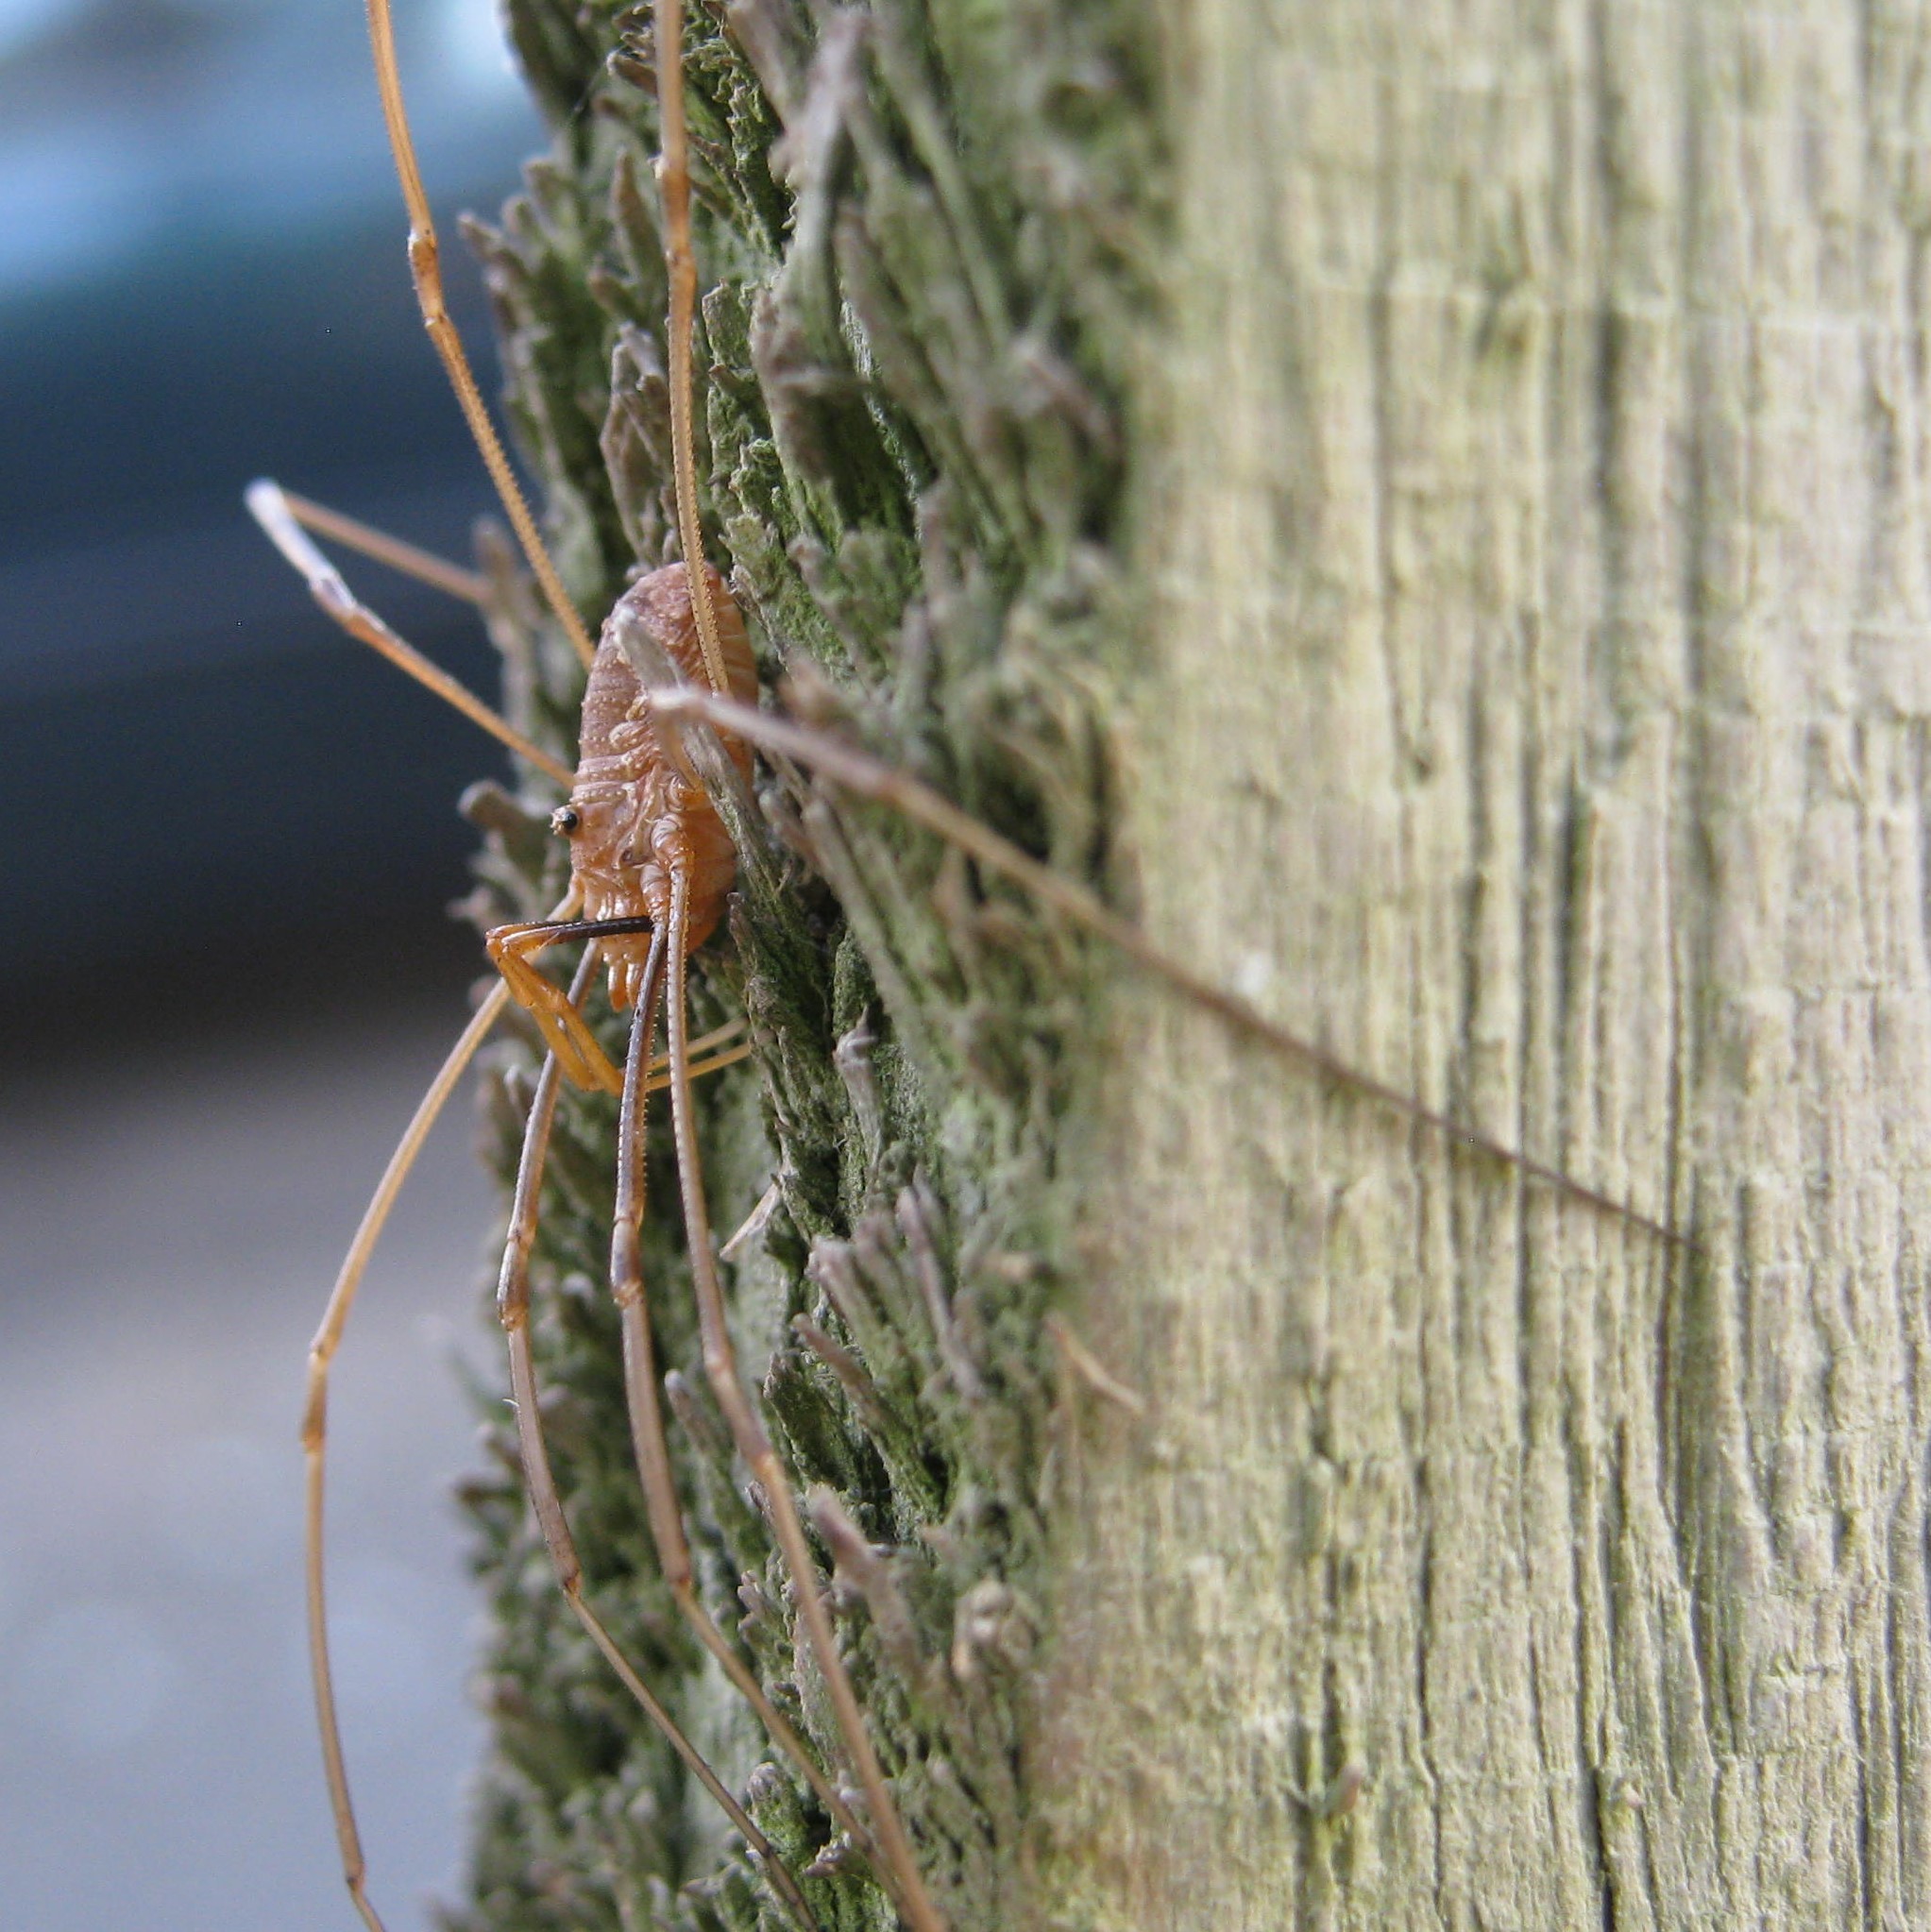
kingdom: Animalia
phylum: Arthropoda
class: Arachnida
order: Opiliones
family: Phalangiidae
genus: Phalangium
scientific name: Phalangium opilio
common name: Daddy longleg
